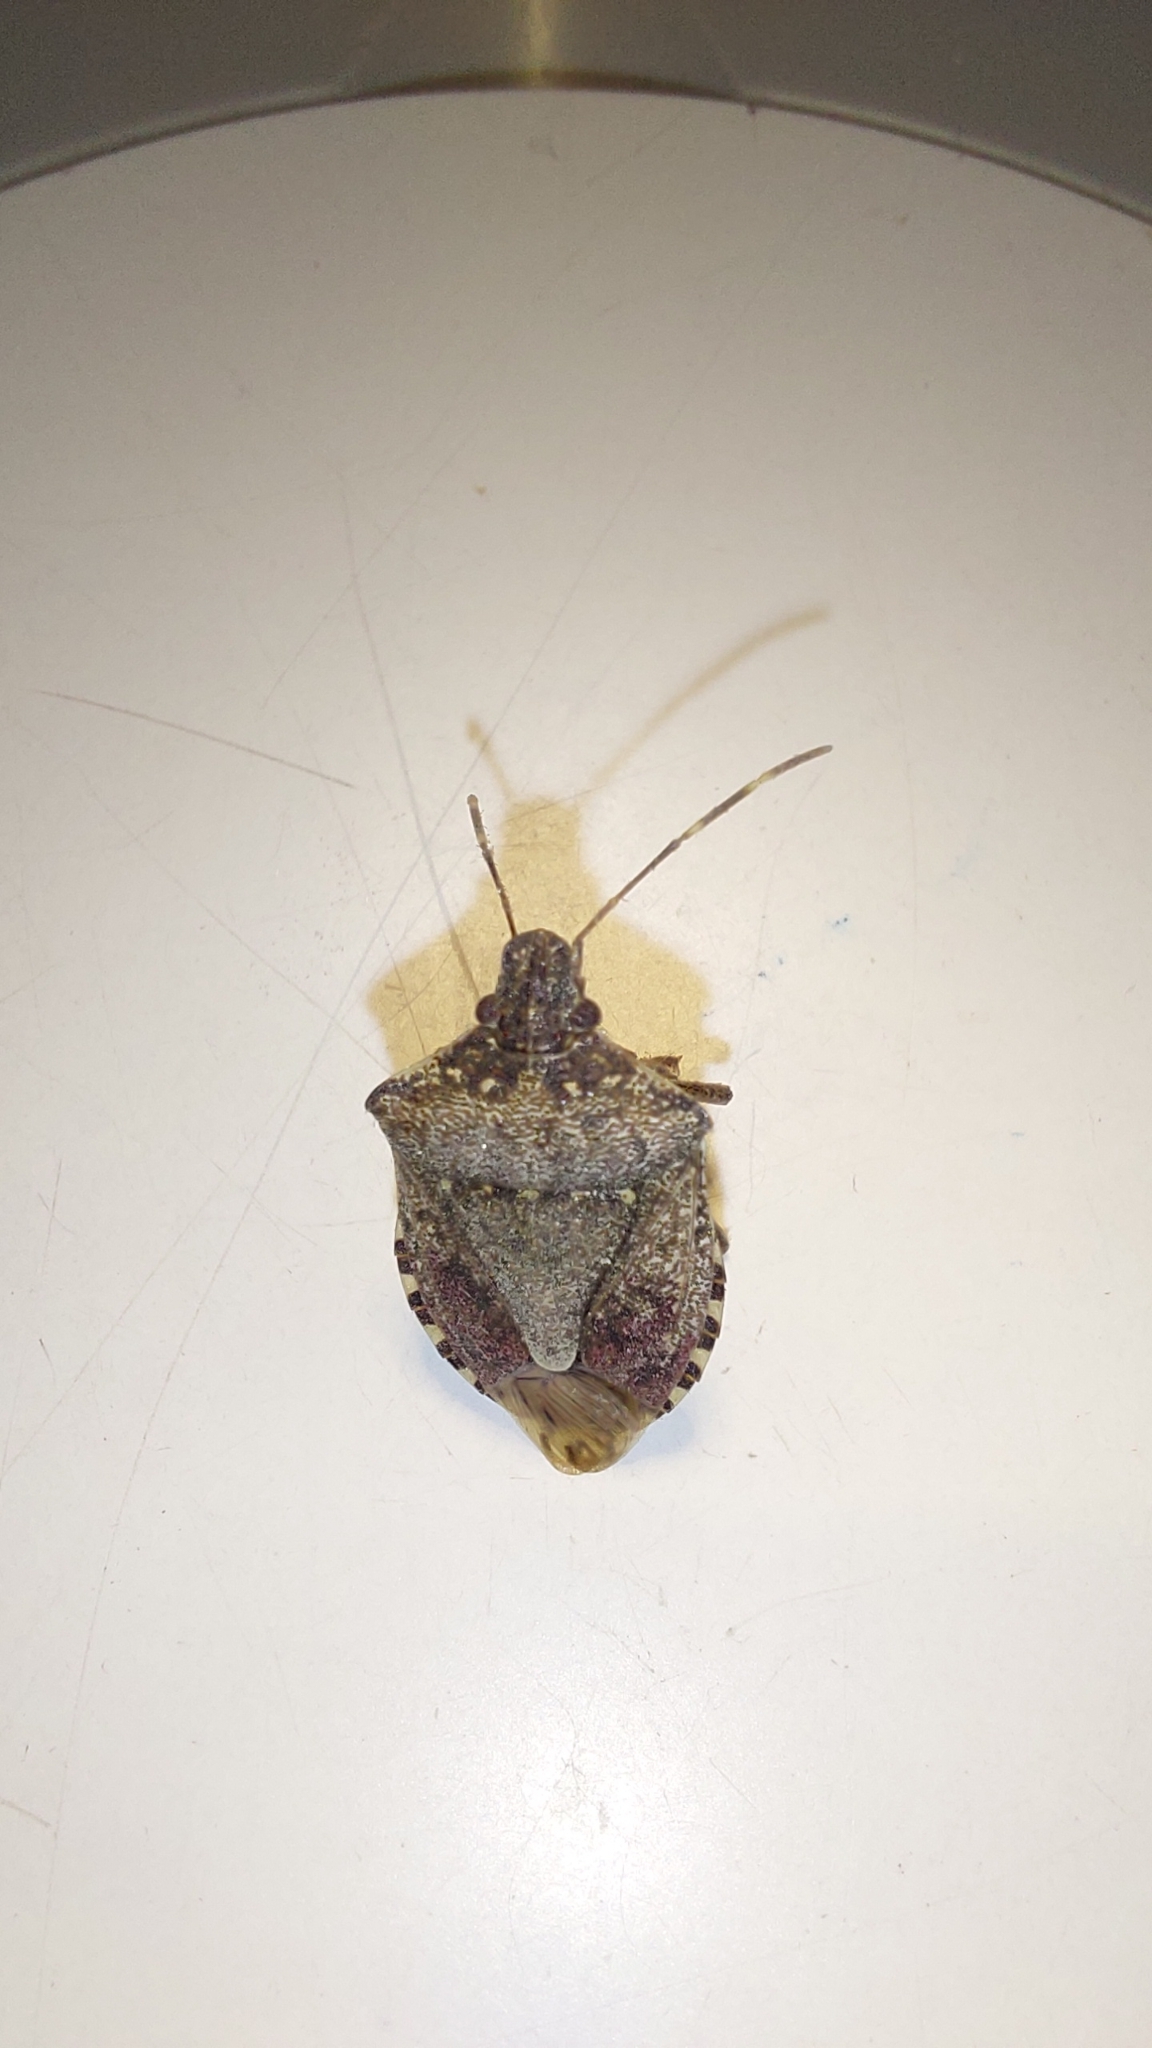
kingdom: Animalia
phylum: Arthropoda
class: Insecta
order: Hemiptera
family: Pentatomidae
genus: Halyomorpha
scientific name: Halyomorpha halys
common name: Brown marmorated stink bug
